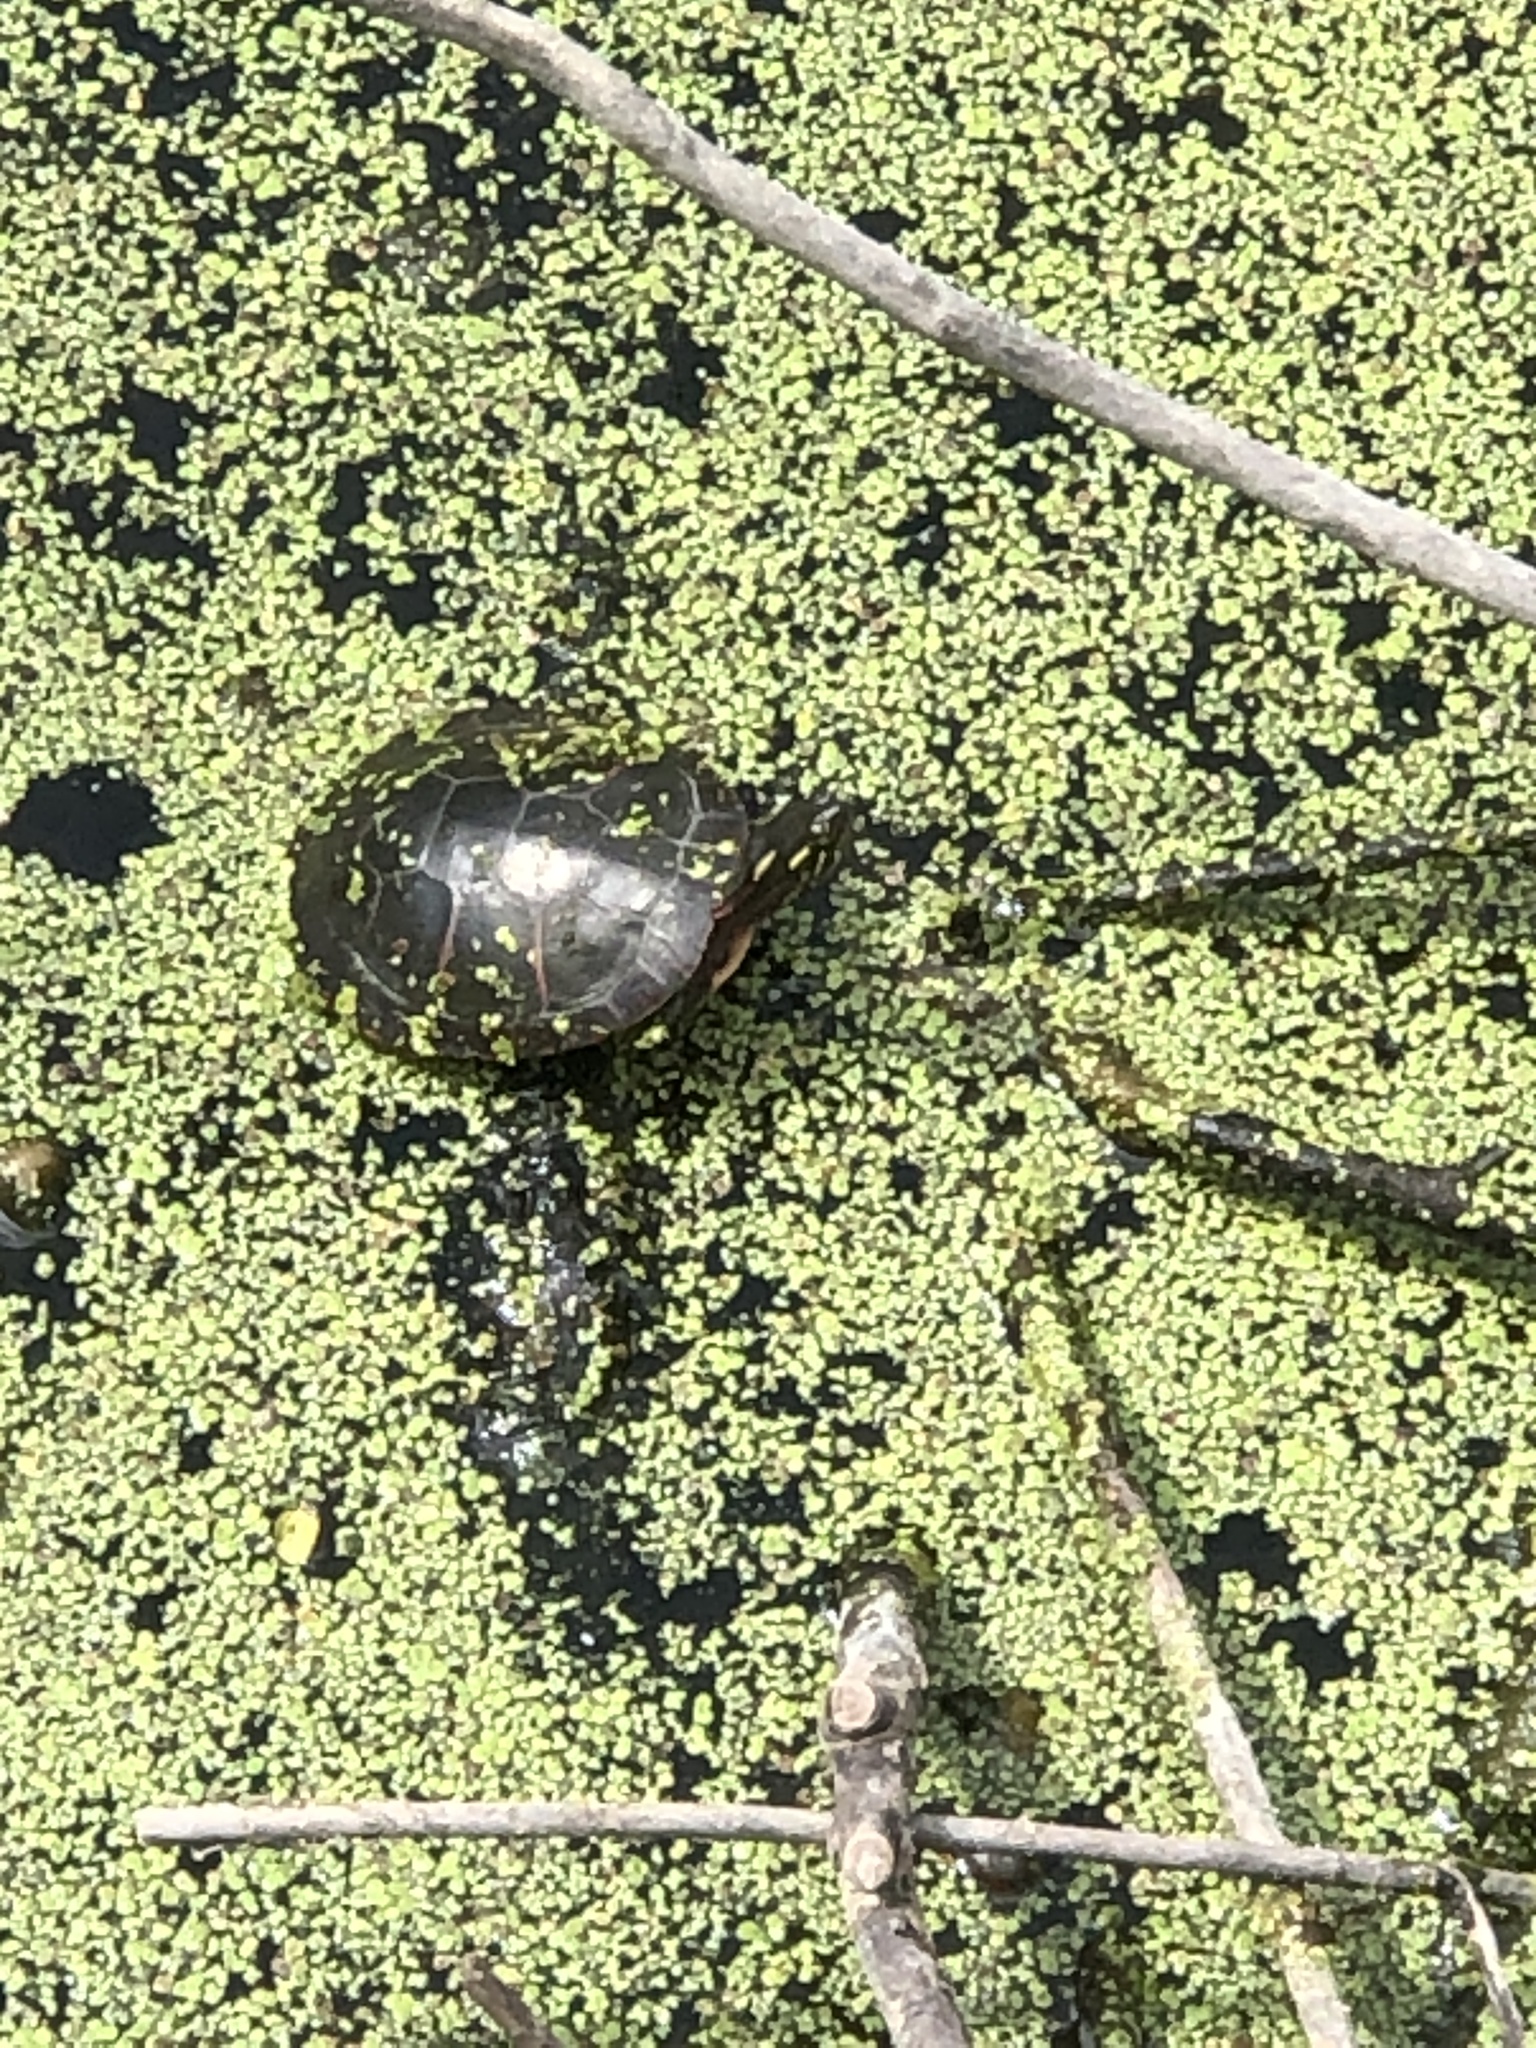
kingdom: Animalia
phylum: Chordata
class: Testudines
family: Emydidae
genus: Chrysemys
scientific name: Chrysemys picta
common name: Painted turtle
